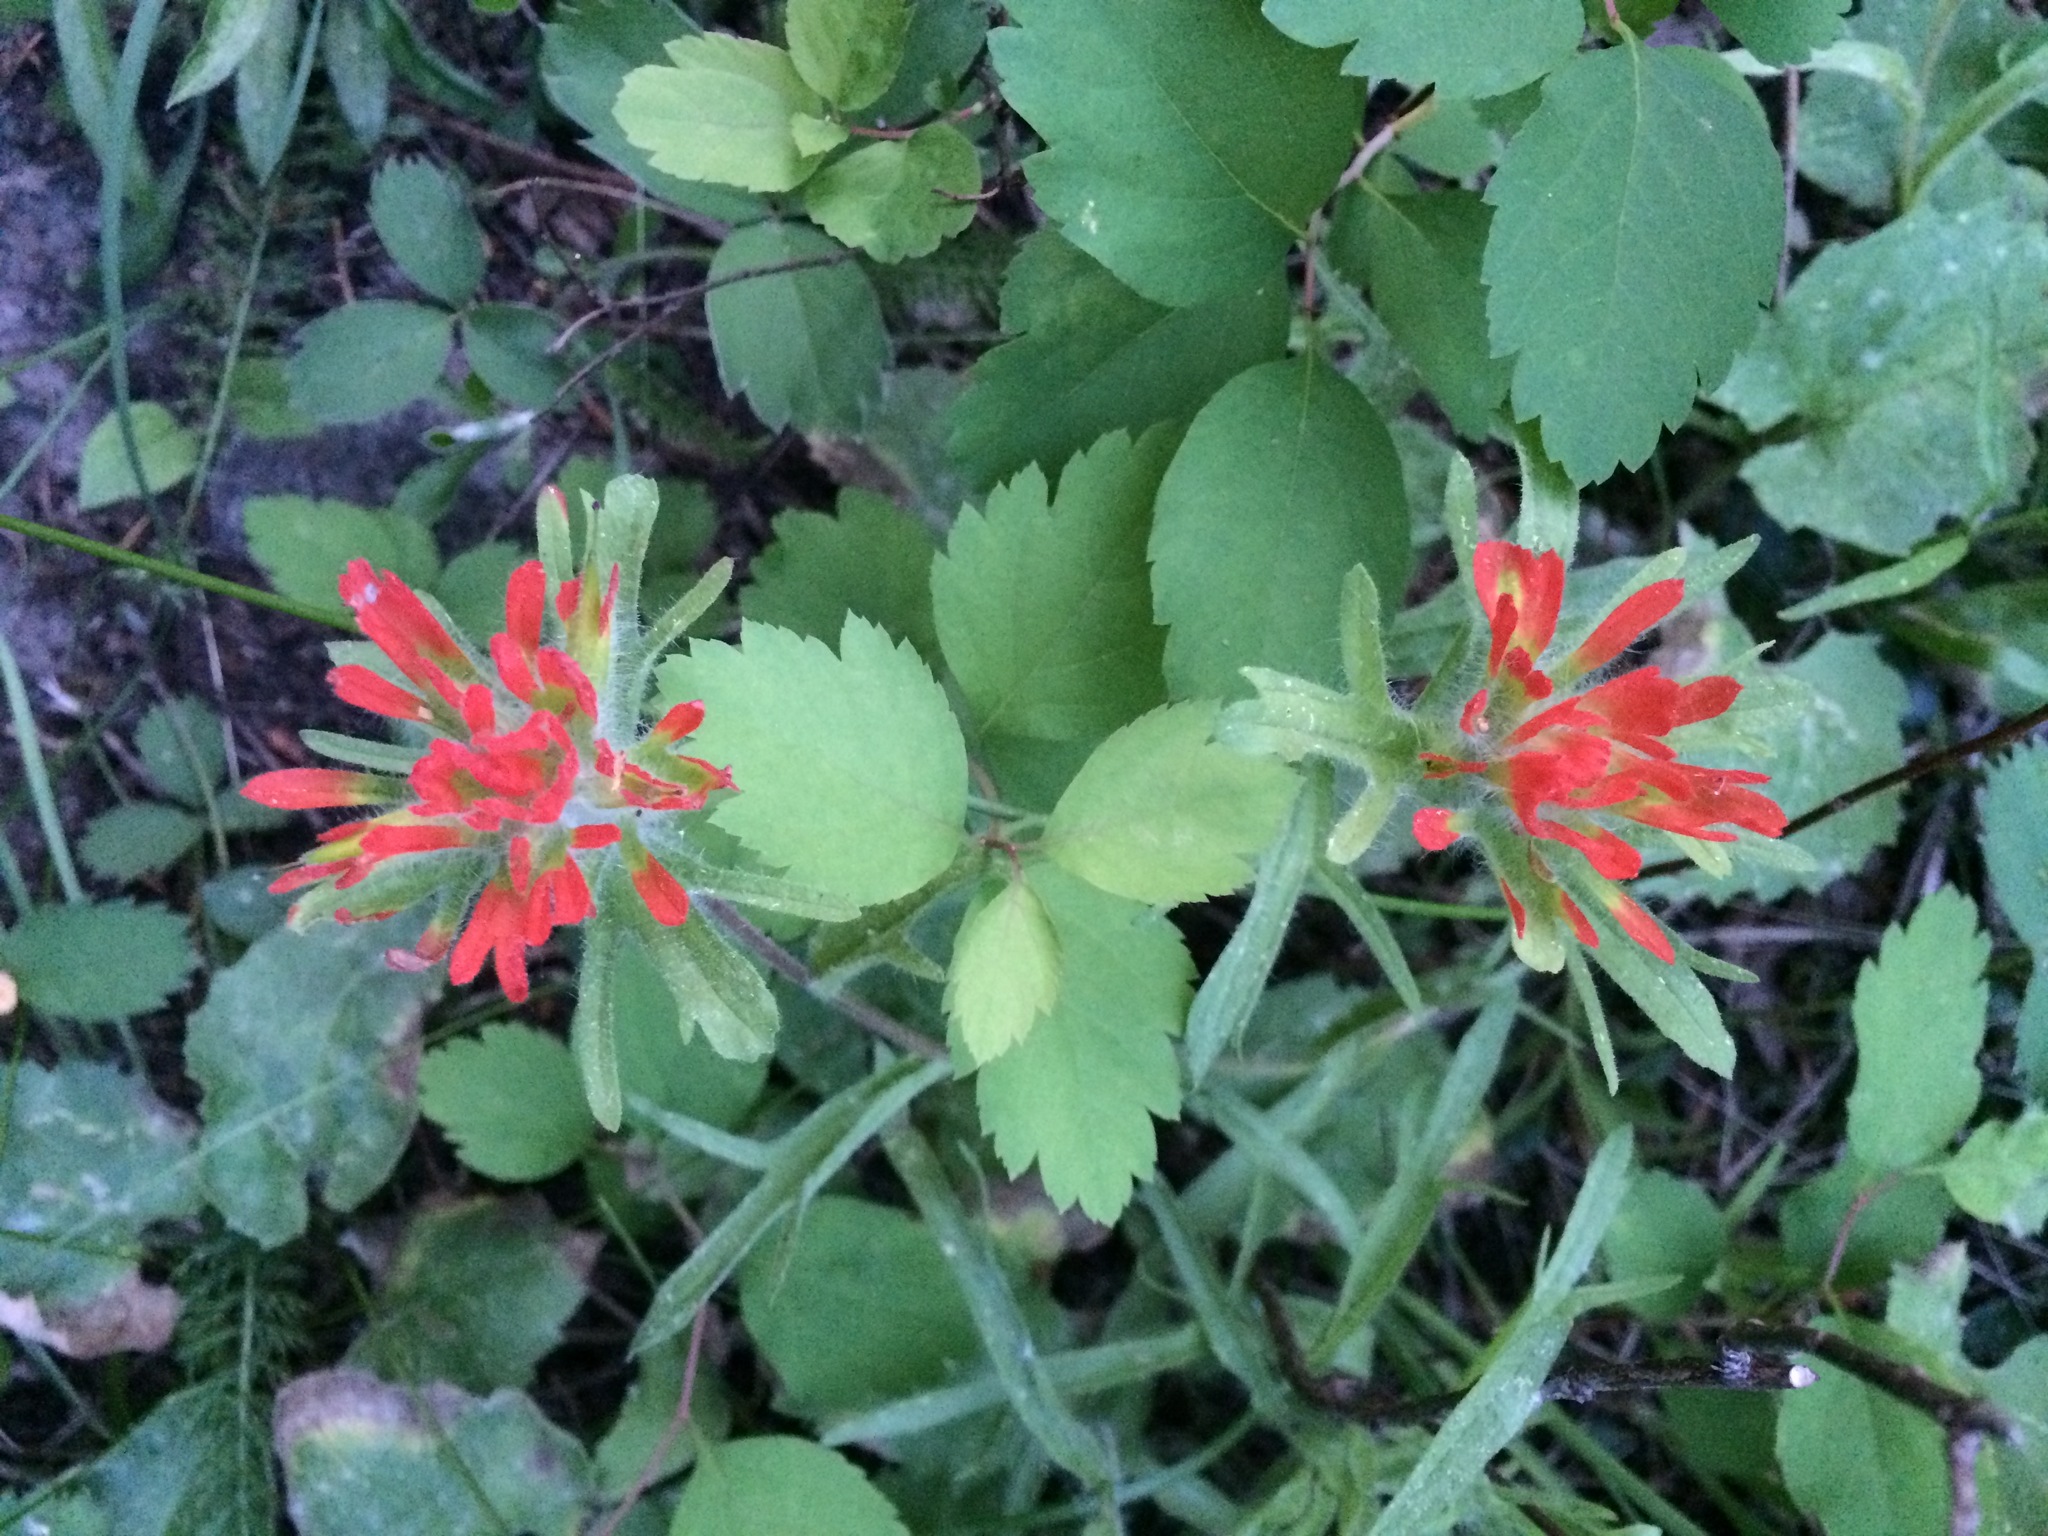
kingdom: Plantae
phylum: Tracheophyta
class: Magnoliopsida
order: Lamiales
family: Orobanchaceae
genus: Castilleja
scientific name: Castilleja hispida
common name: Bristly paintbrush
